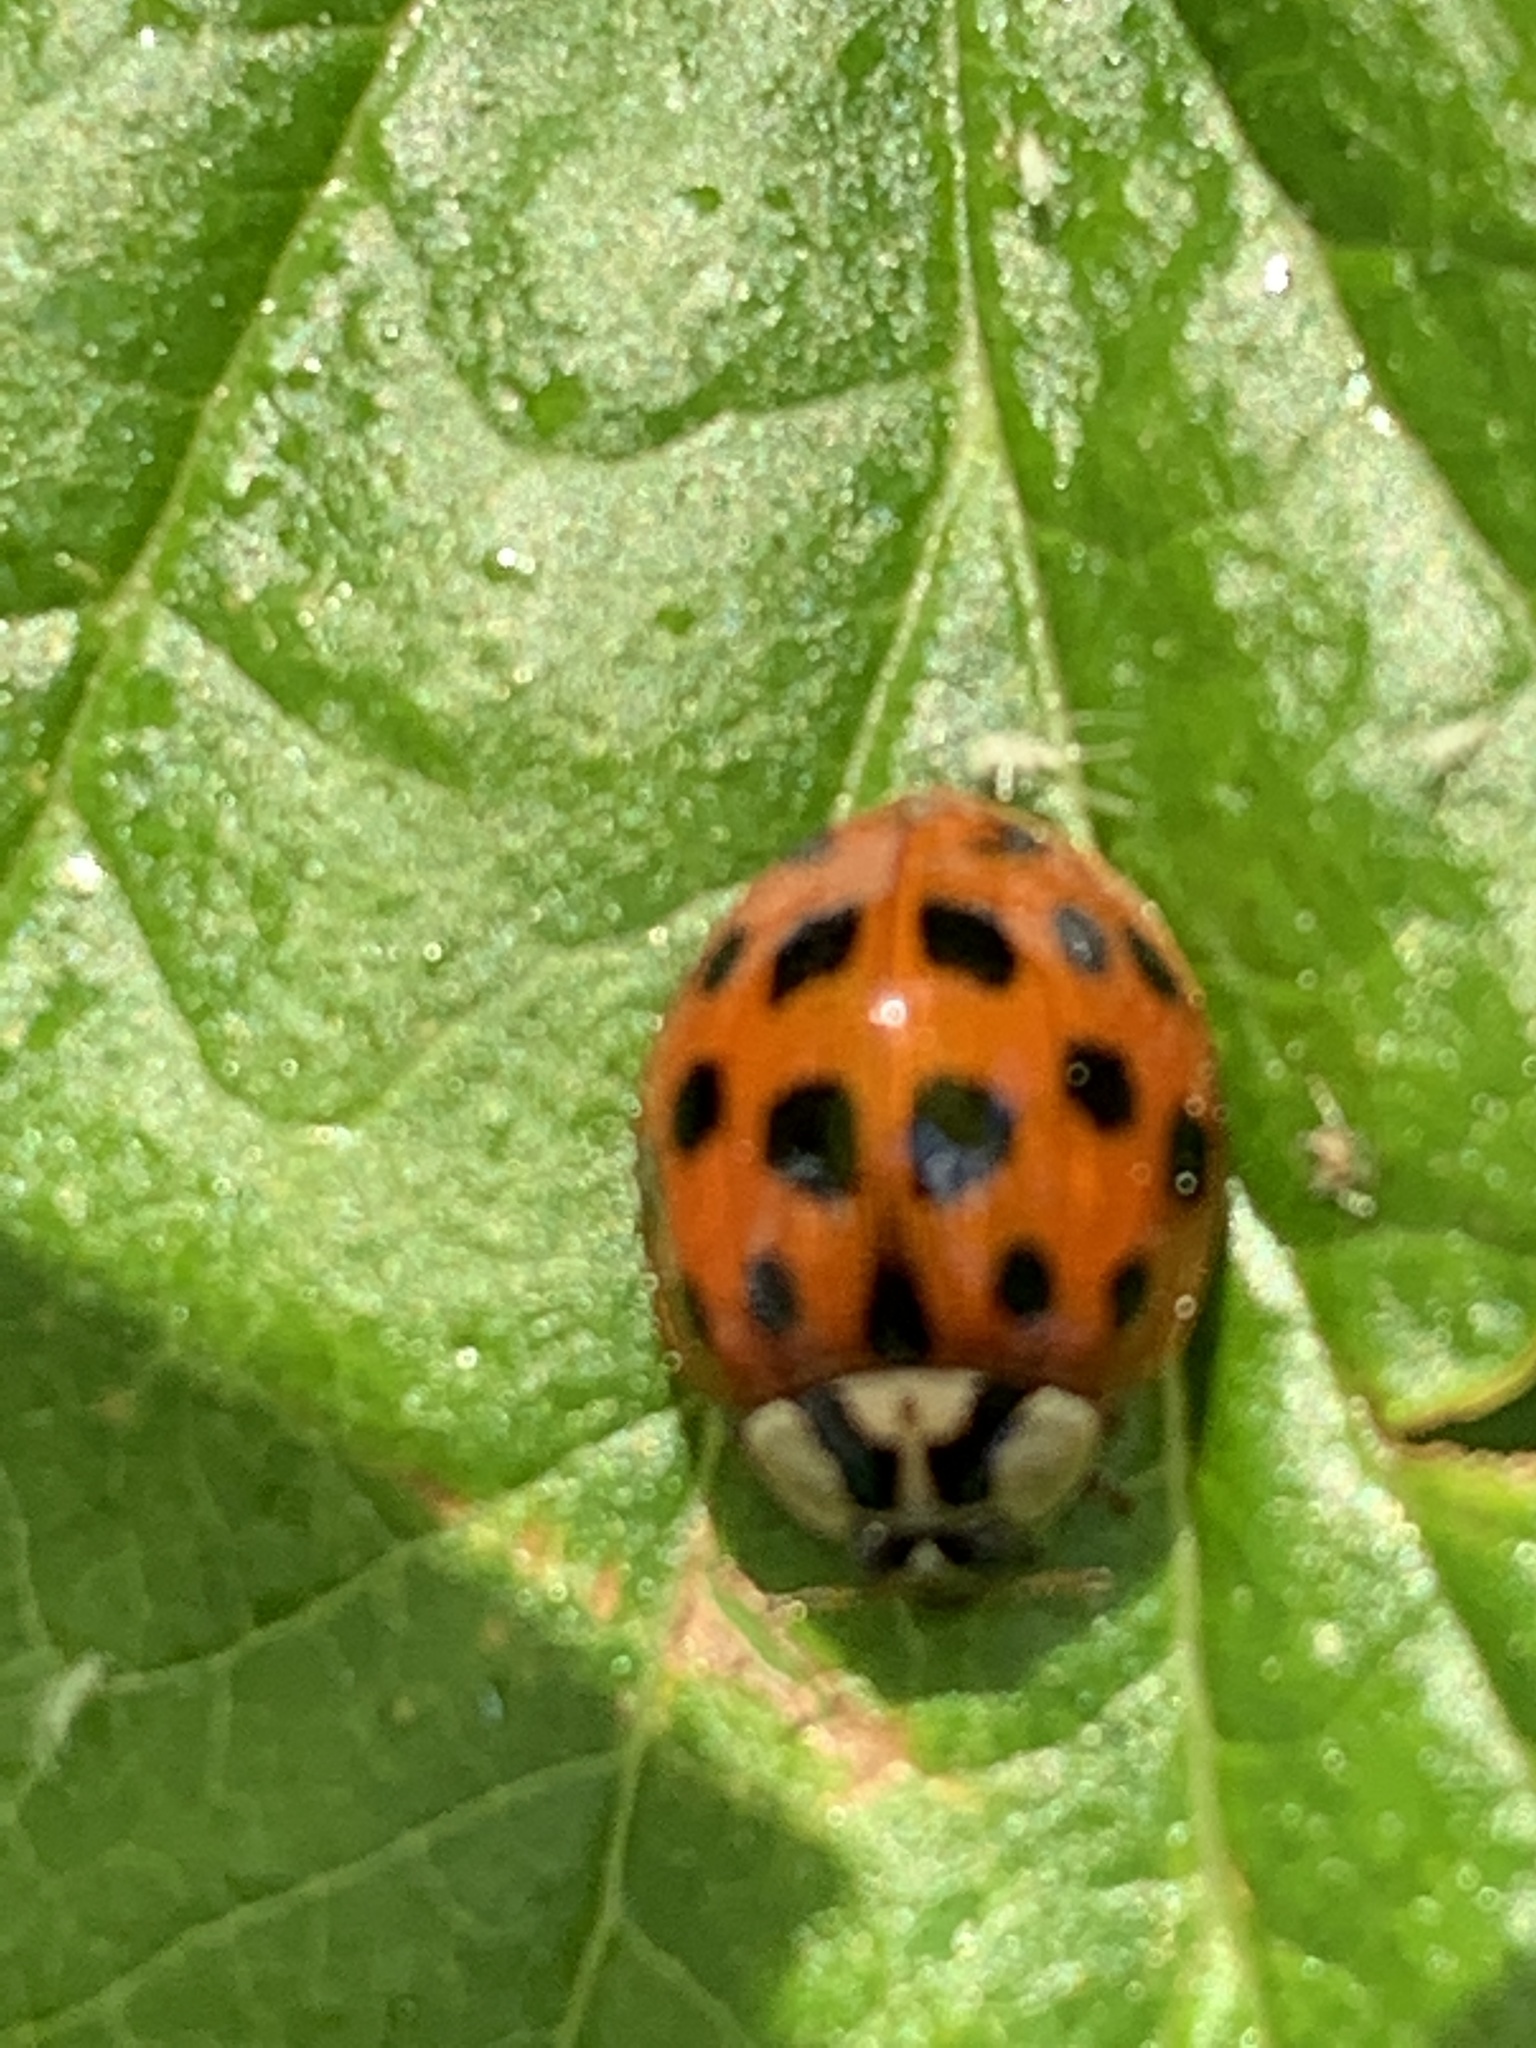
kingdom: Animalia
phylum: Arthropoda
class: Insecta
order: Coleoptera
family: Coccinellidae
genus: Harmonia
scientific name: Harmonia axyridis
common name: Harlequin ladybird
